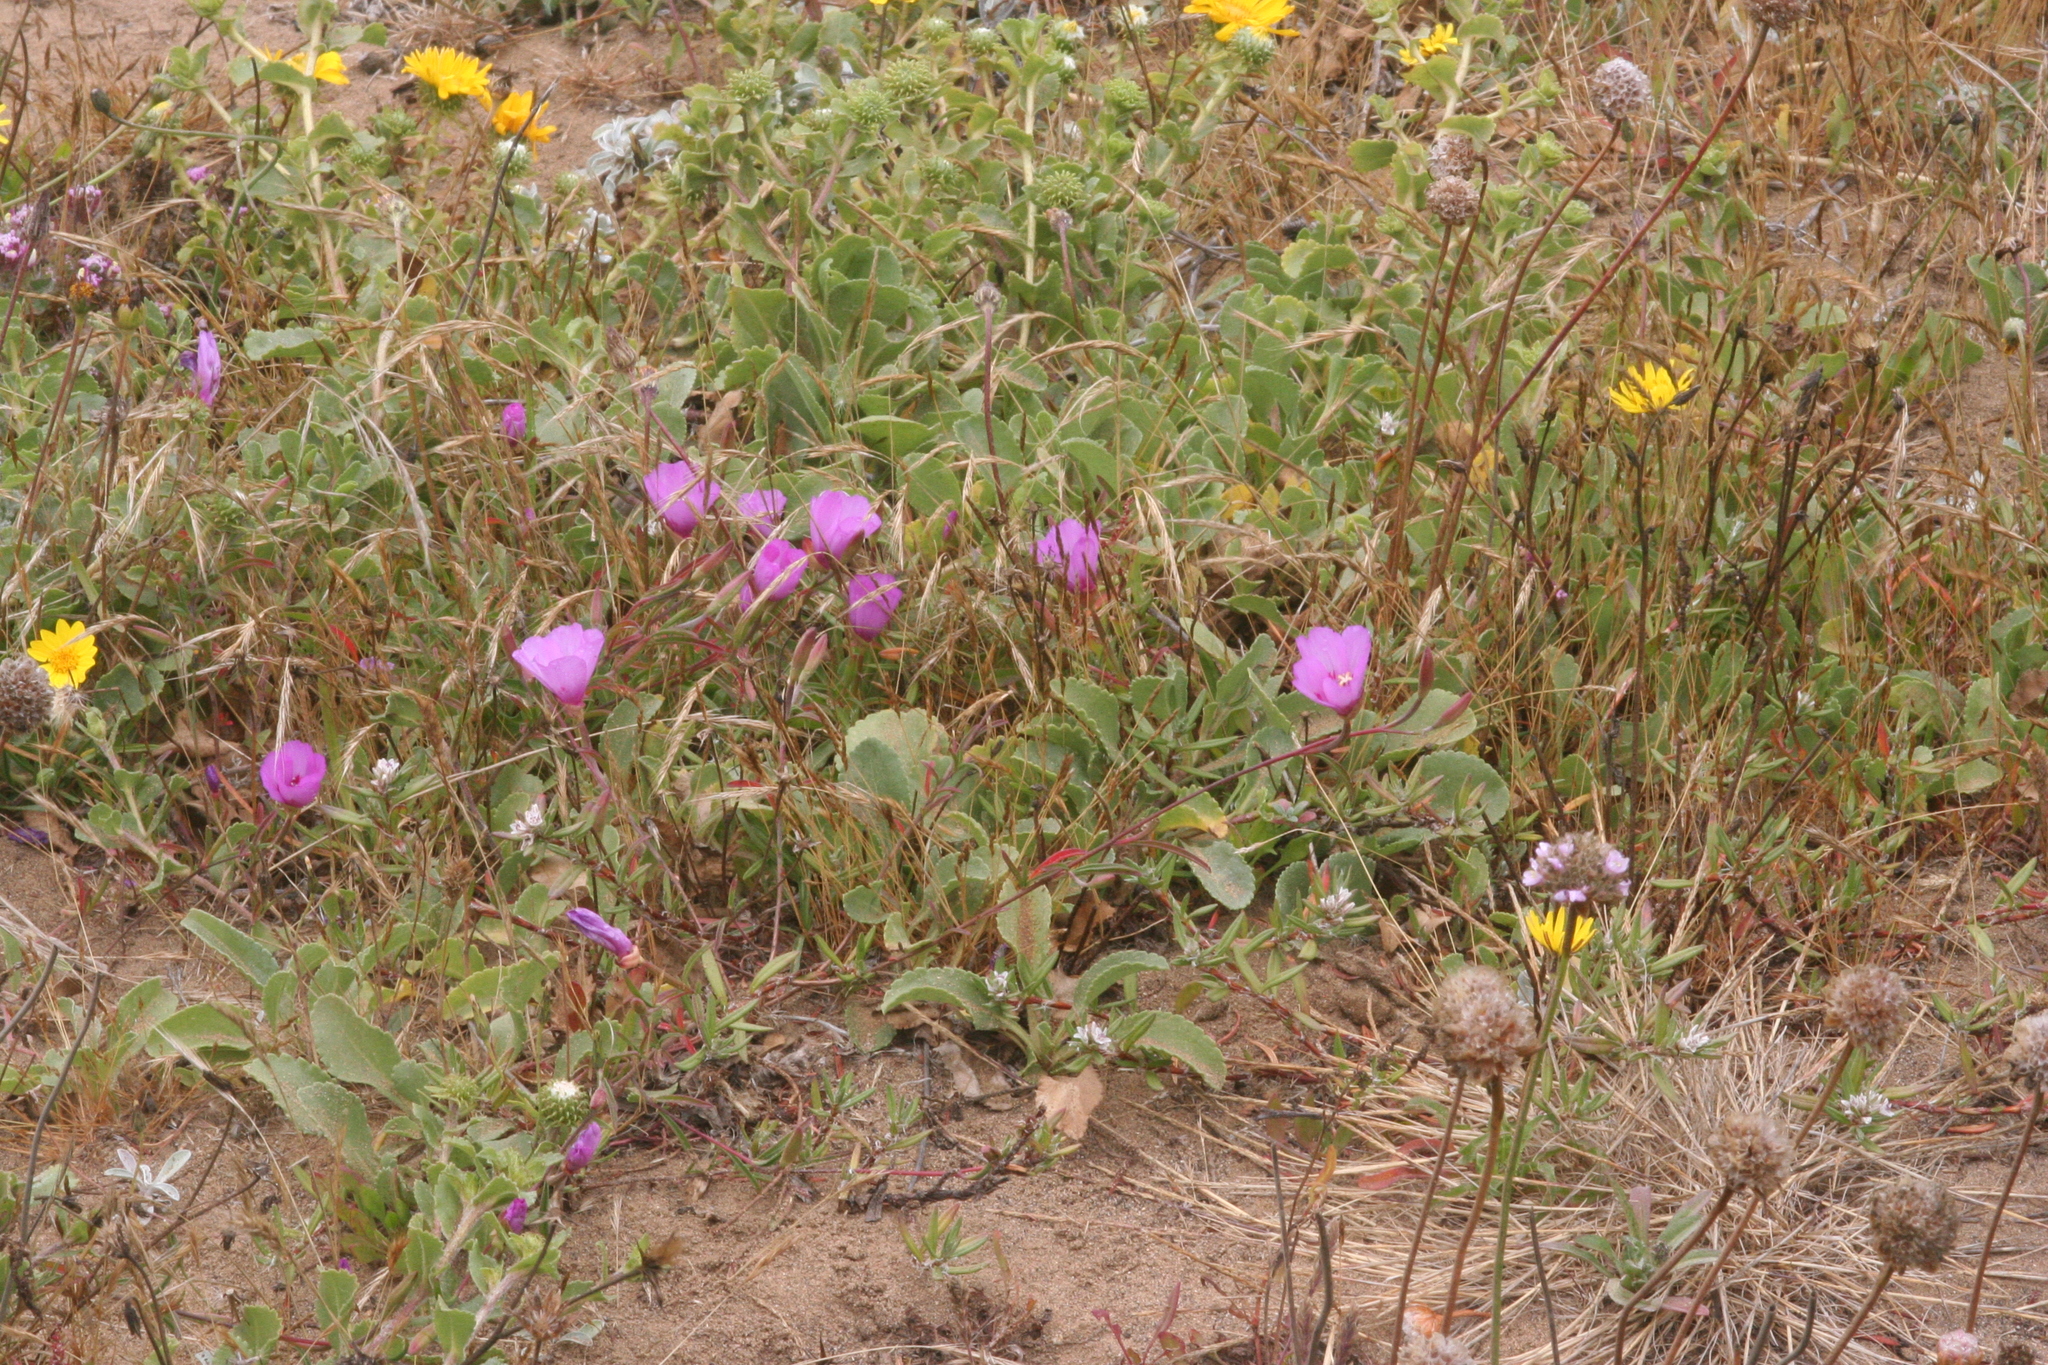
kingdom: Plantae
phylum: Tracheophyta
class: Magnoliopsida
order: Myrtales
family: Onagraceae
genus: Clarkia
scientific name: Clarkia amoena
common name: Godetia
